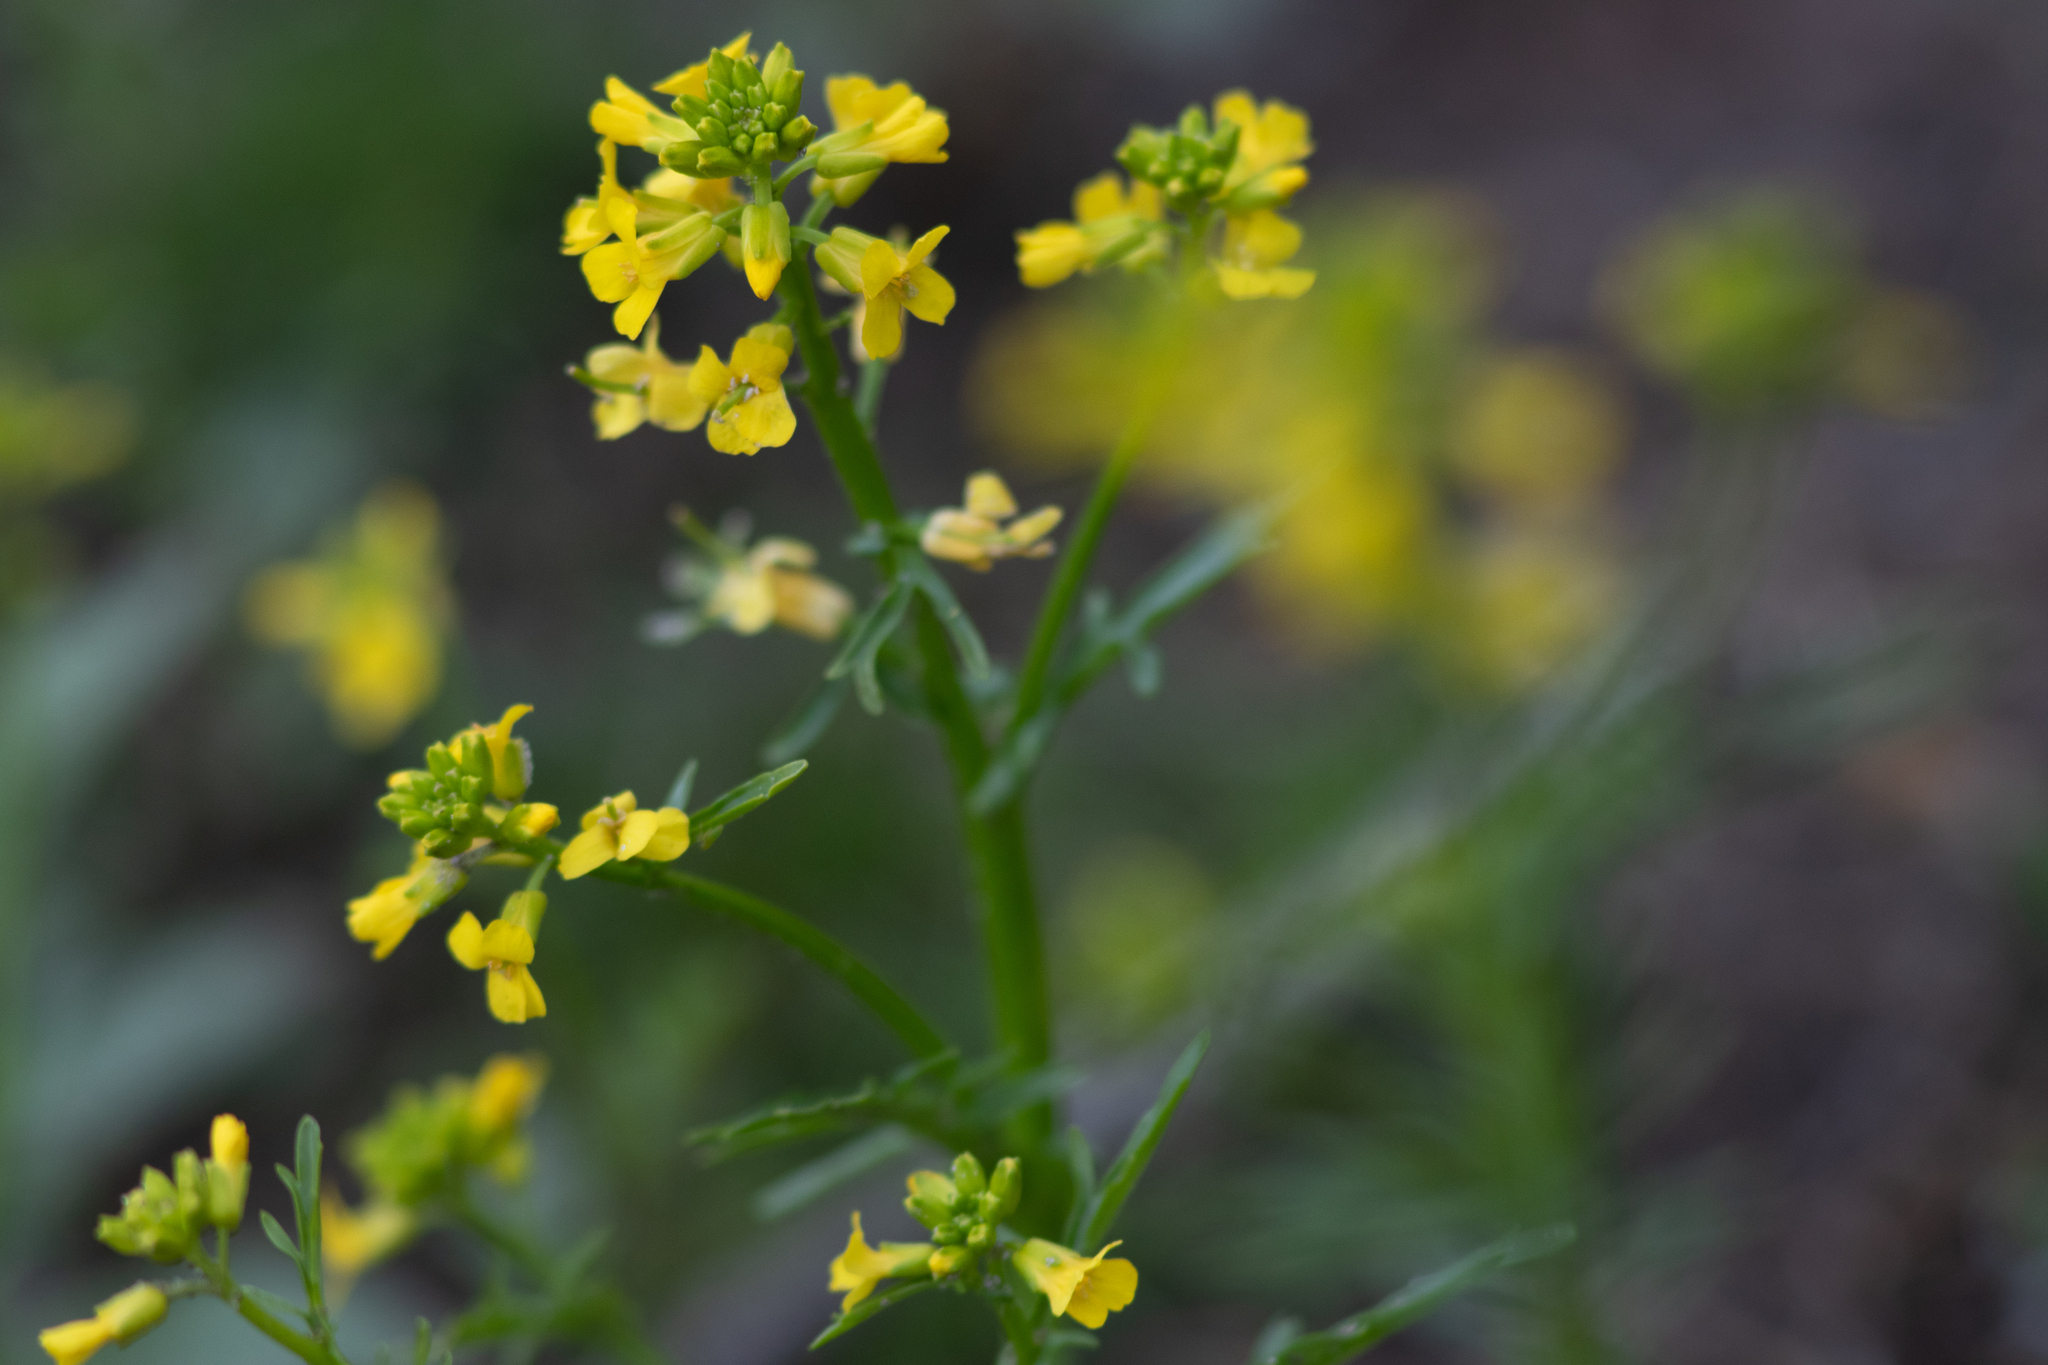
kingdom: Plantae
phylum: Tracheophyta
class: Magnoliopsida
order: Brassicales
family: Brassicaceae
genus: Barbarea
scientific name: Barbarea verna
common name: American cress
